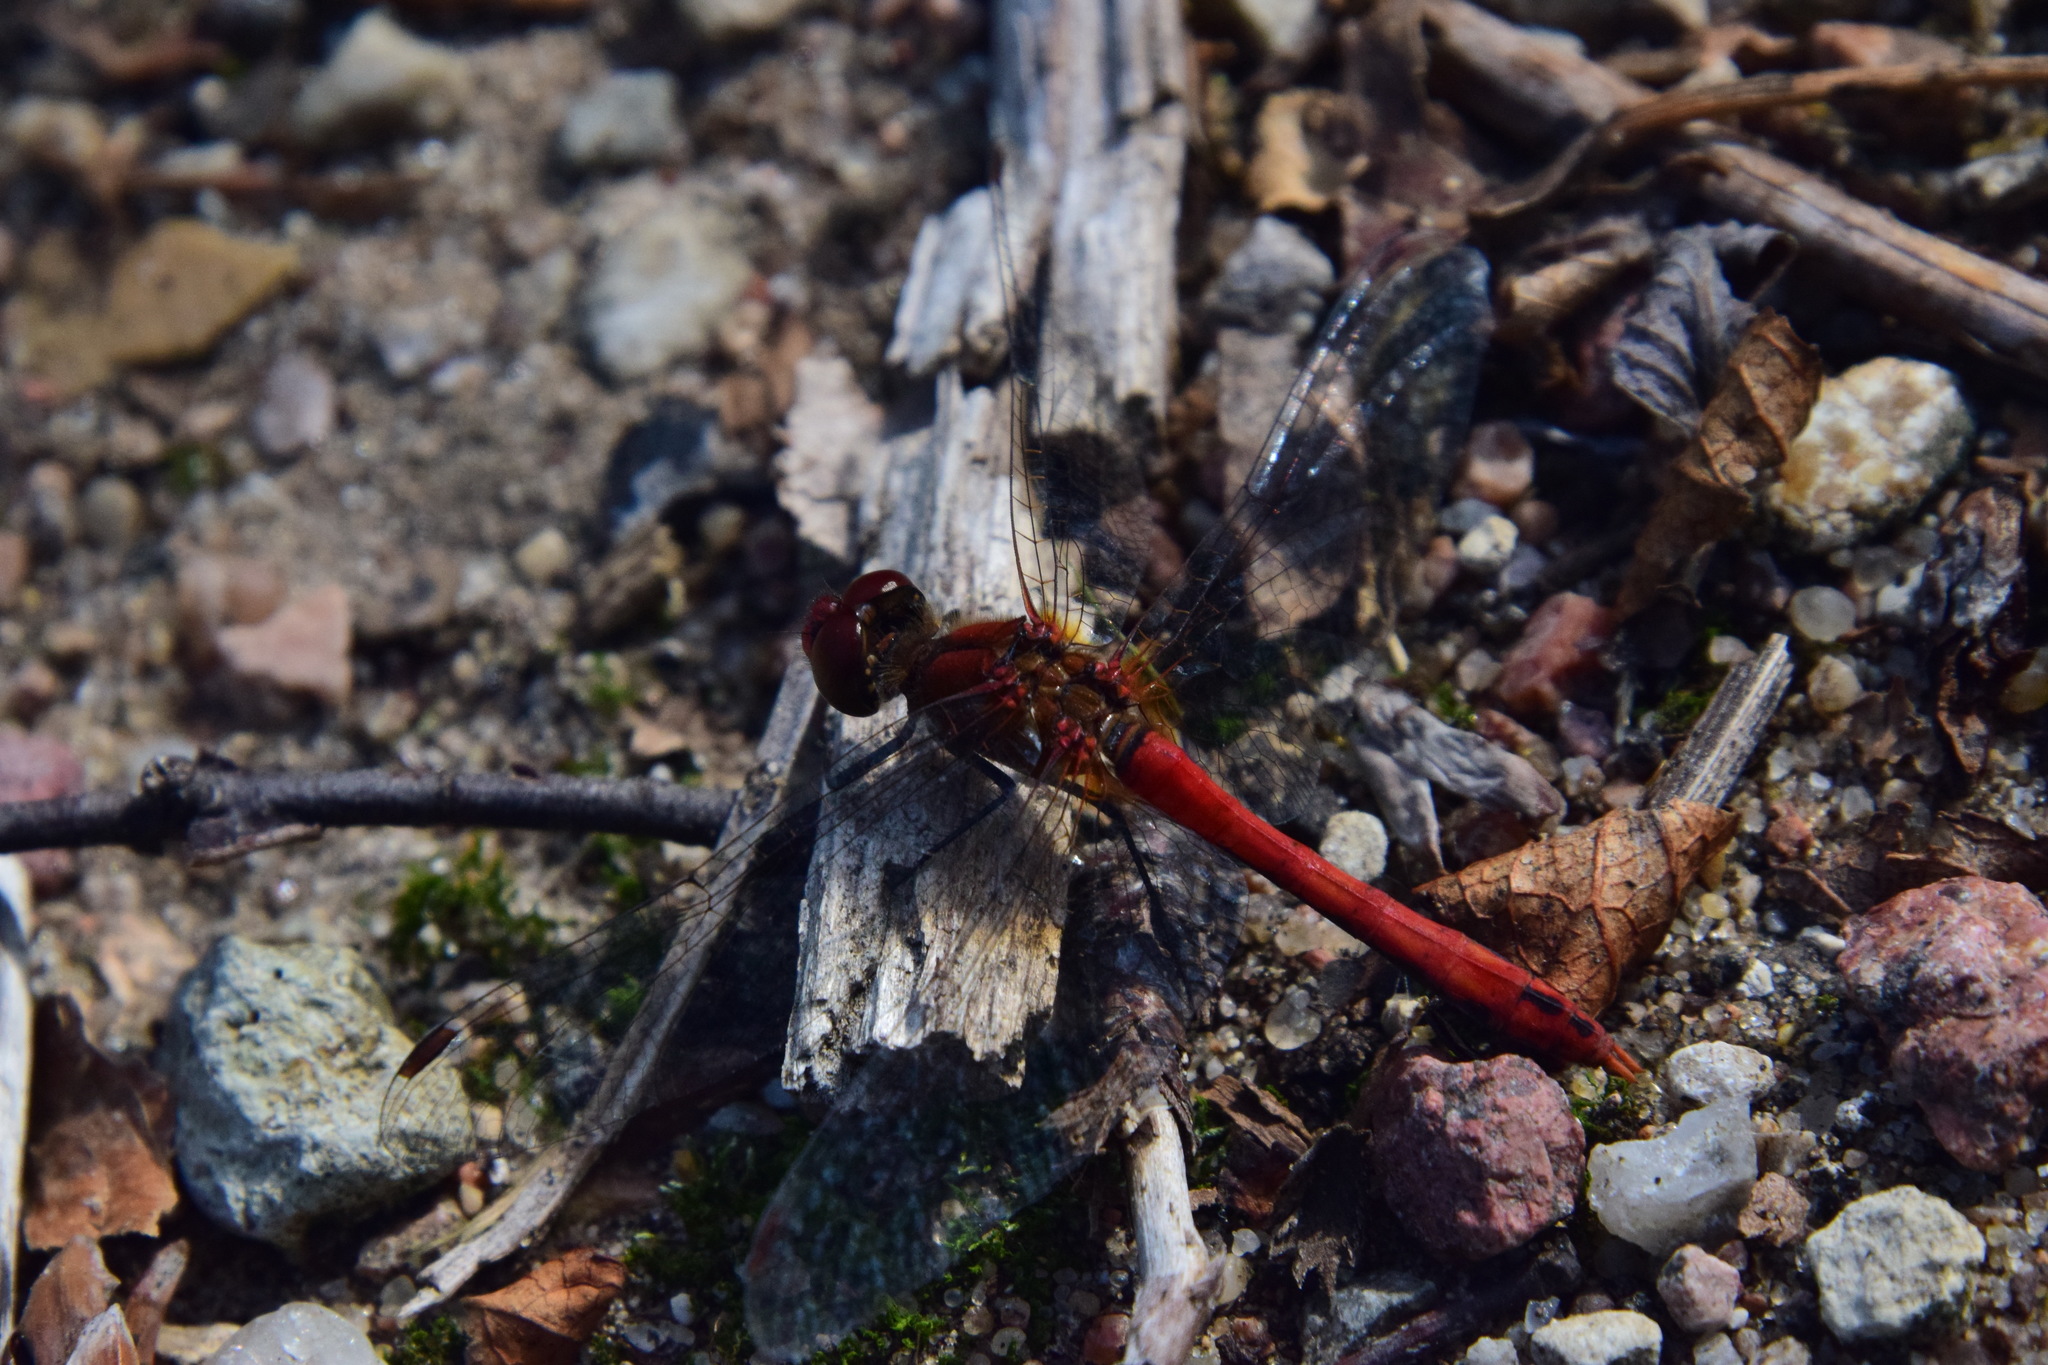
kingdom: Animalia
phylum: Arthropoda
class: Insecta
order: Odonata
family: Libellulidae
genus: Sympetrum
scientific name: Sympetrum sanguineum
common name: Ruddy darter
